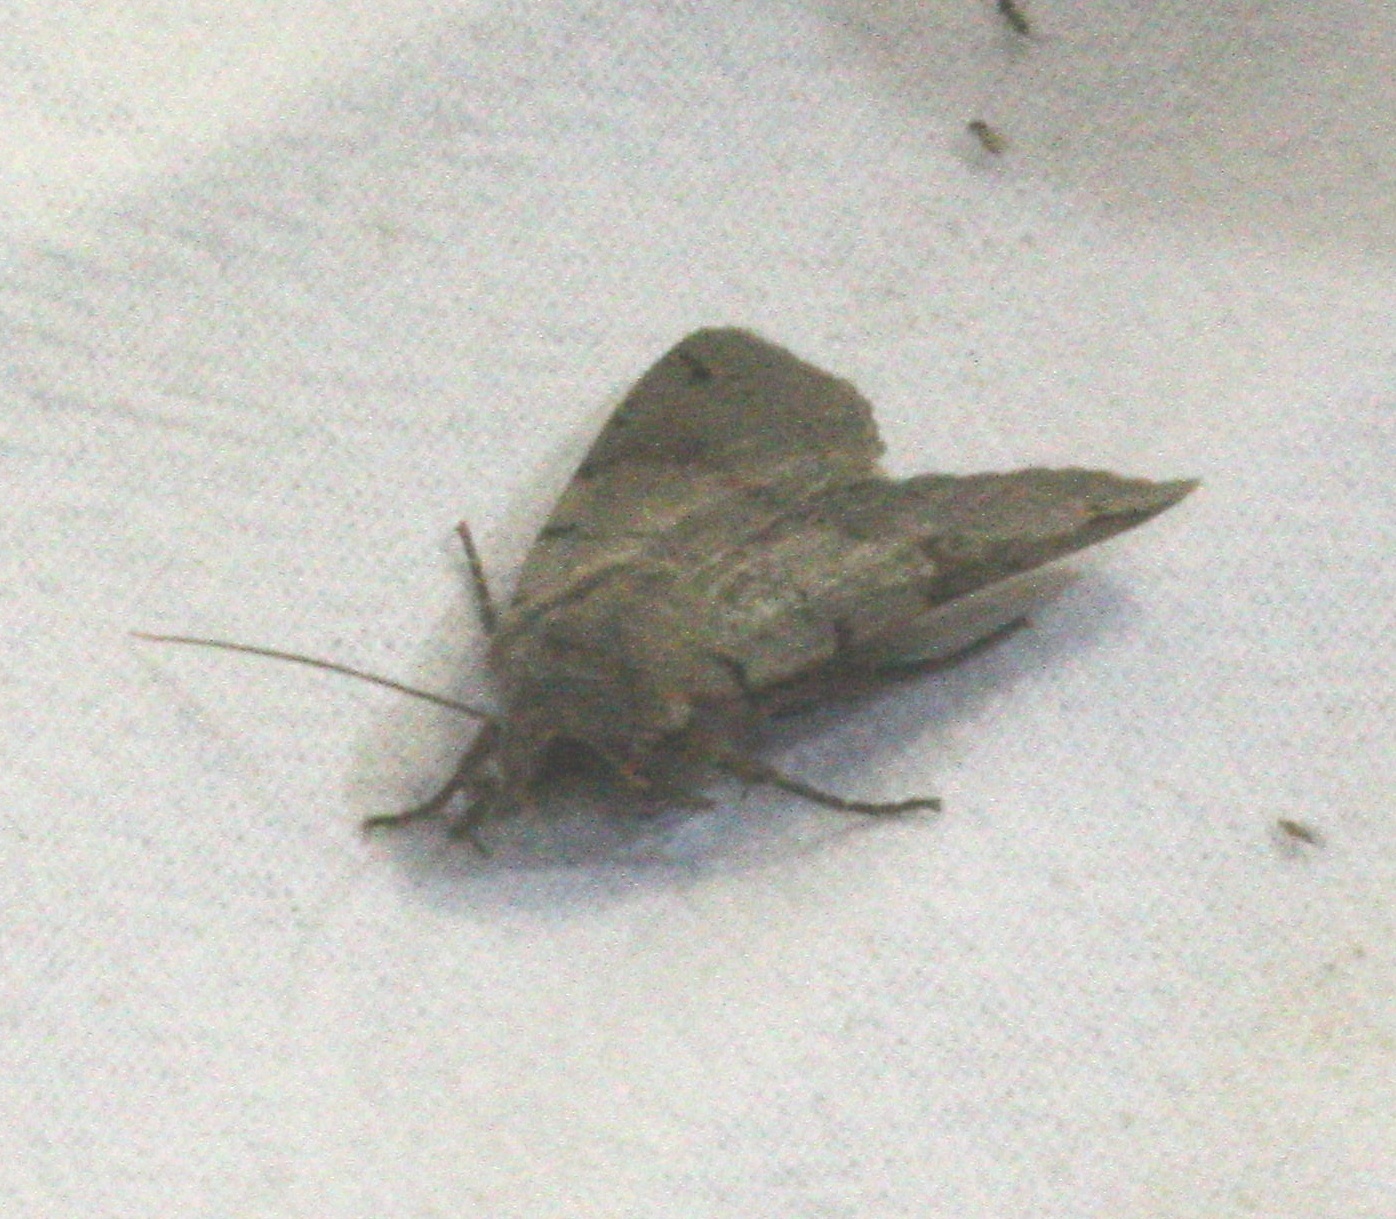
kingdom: Animalia
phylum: Arthropoda
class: Insecta
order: Lepidoptera
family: Noctuidae
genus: Agrochola
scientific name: Agrochola litura
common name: Brown-spot pinion
